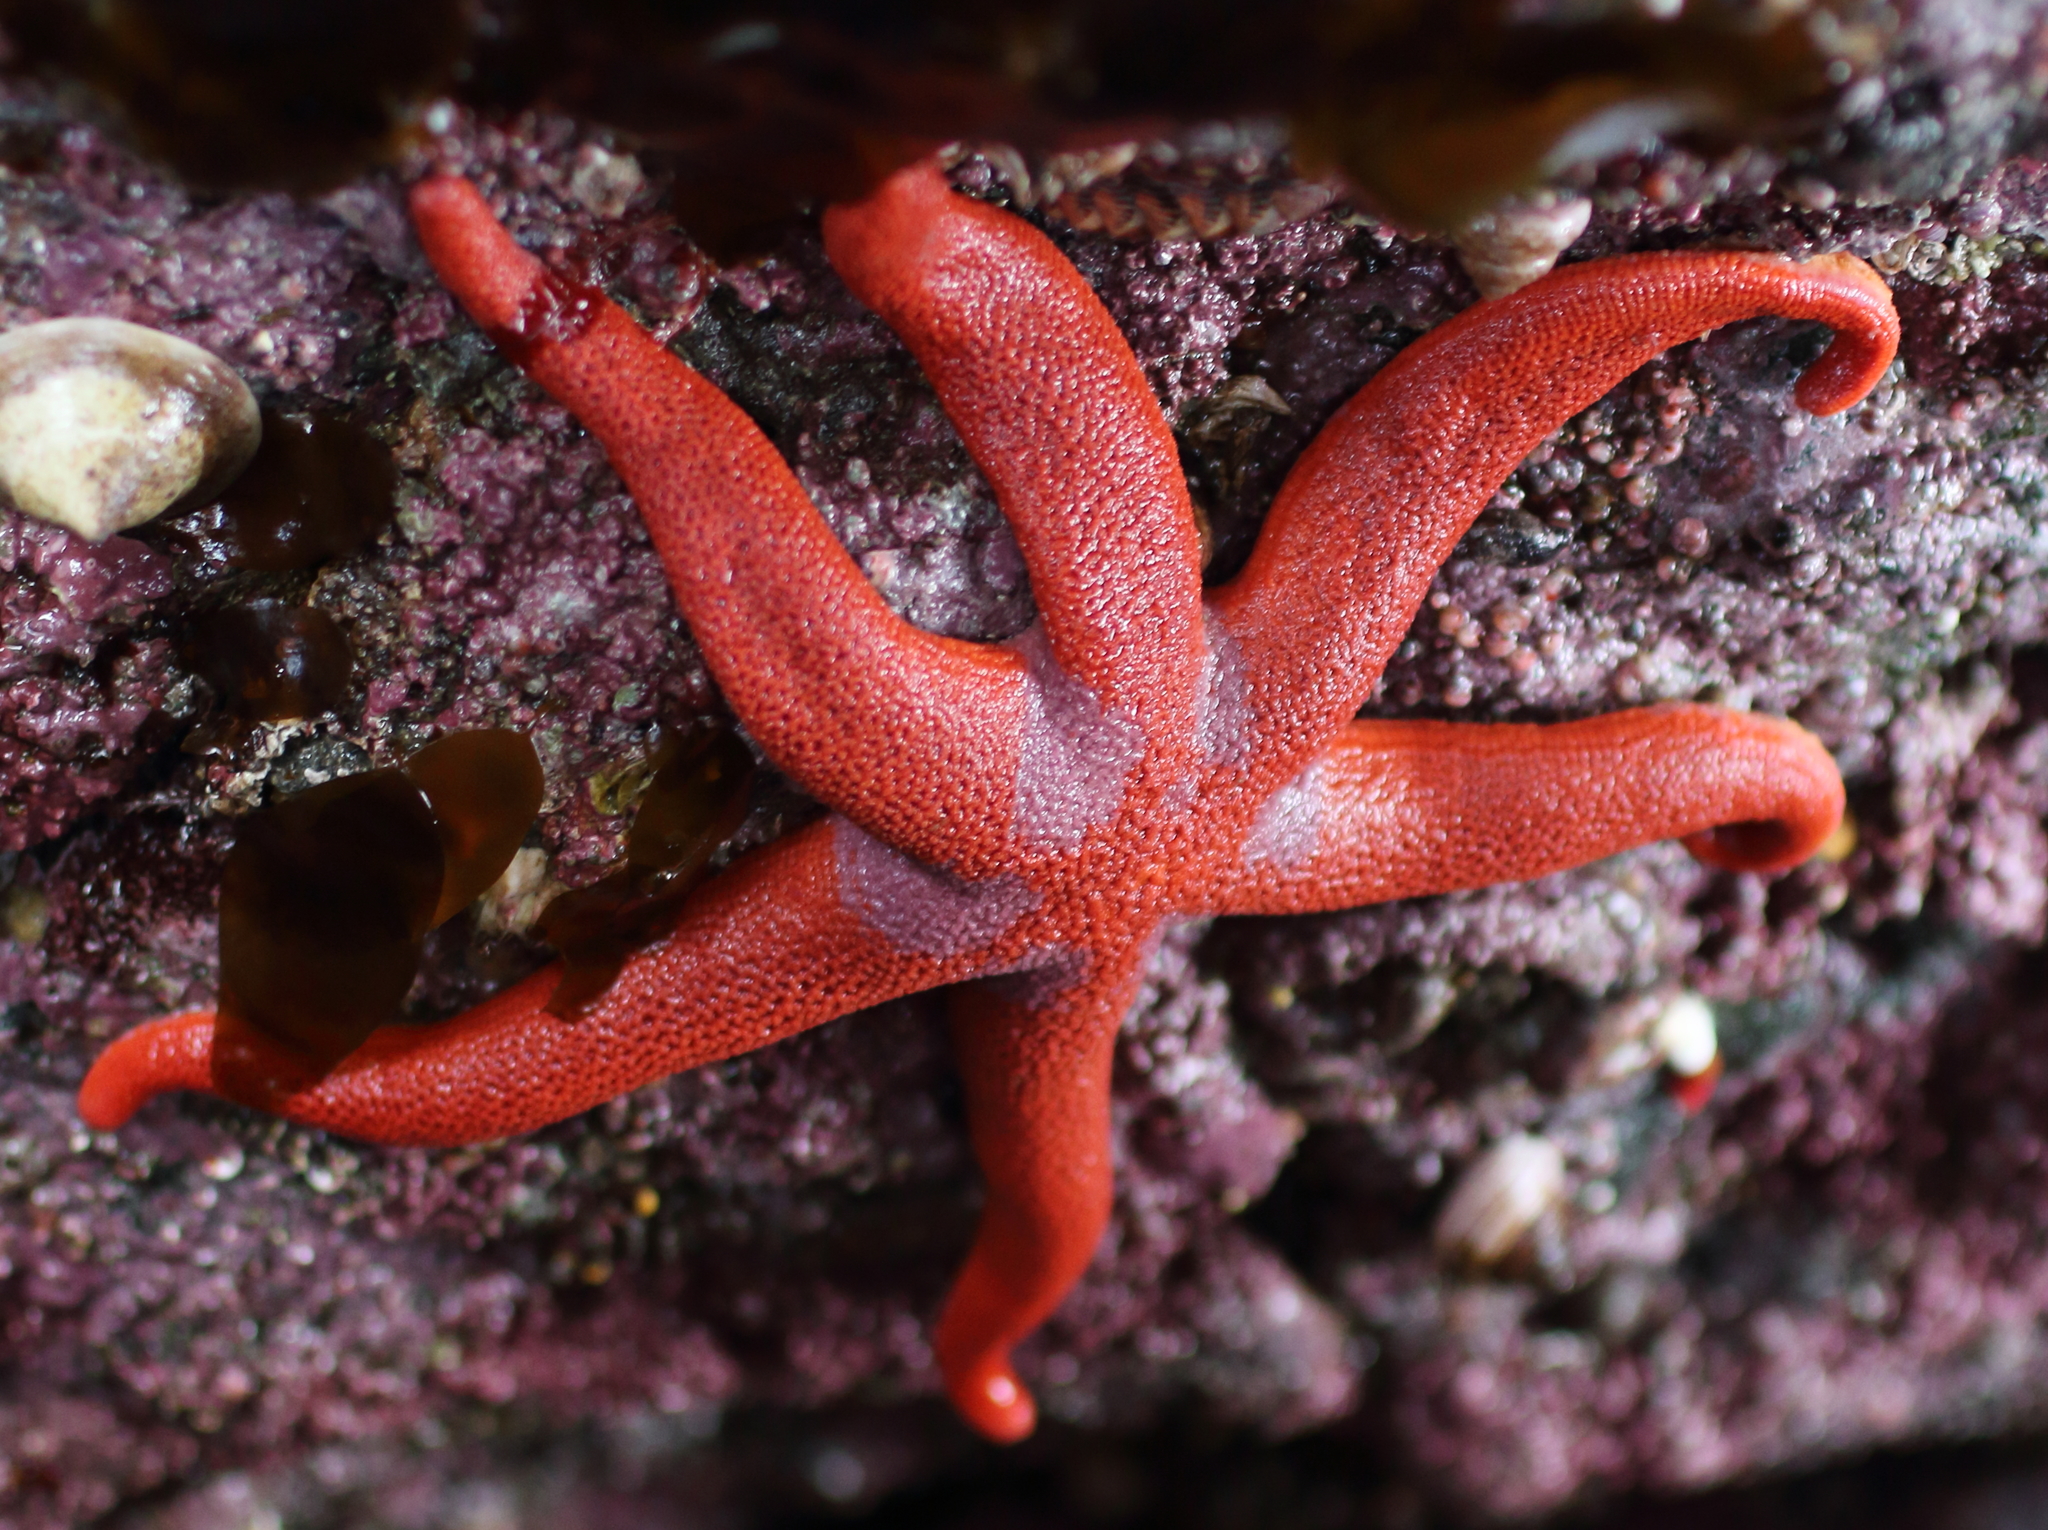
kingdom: Animalia
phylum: Echinodermata
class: Asteroidea
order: Spinulosida
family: Echinasteridae
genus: Henricia
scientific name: Henricia leviuscula
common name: Pacific blood star
